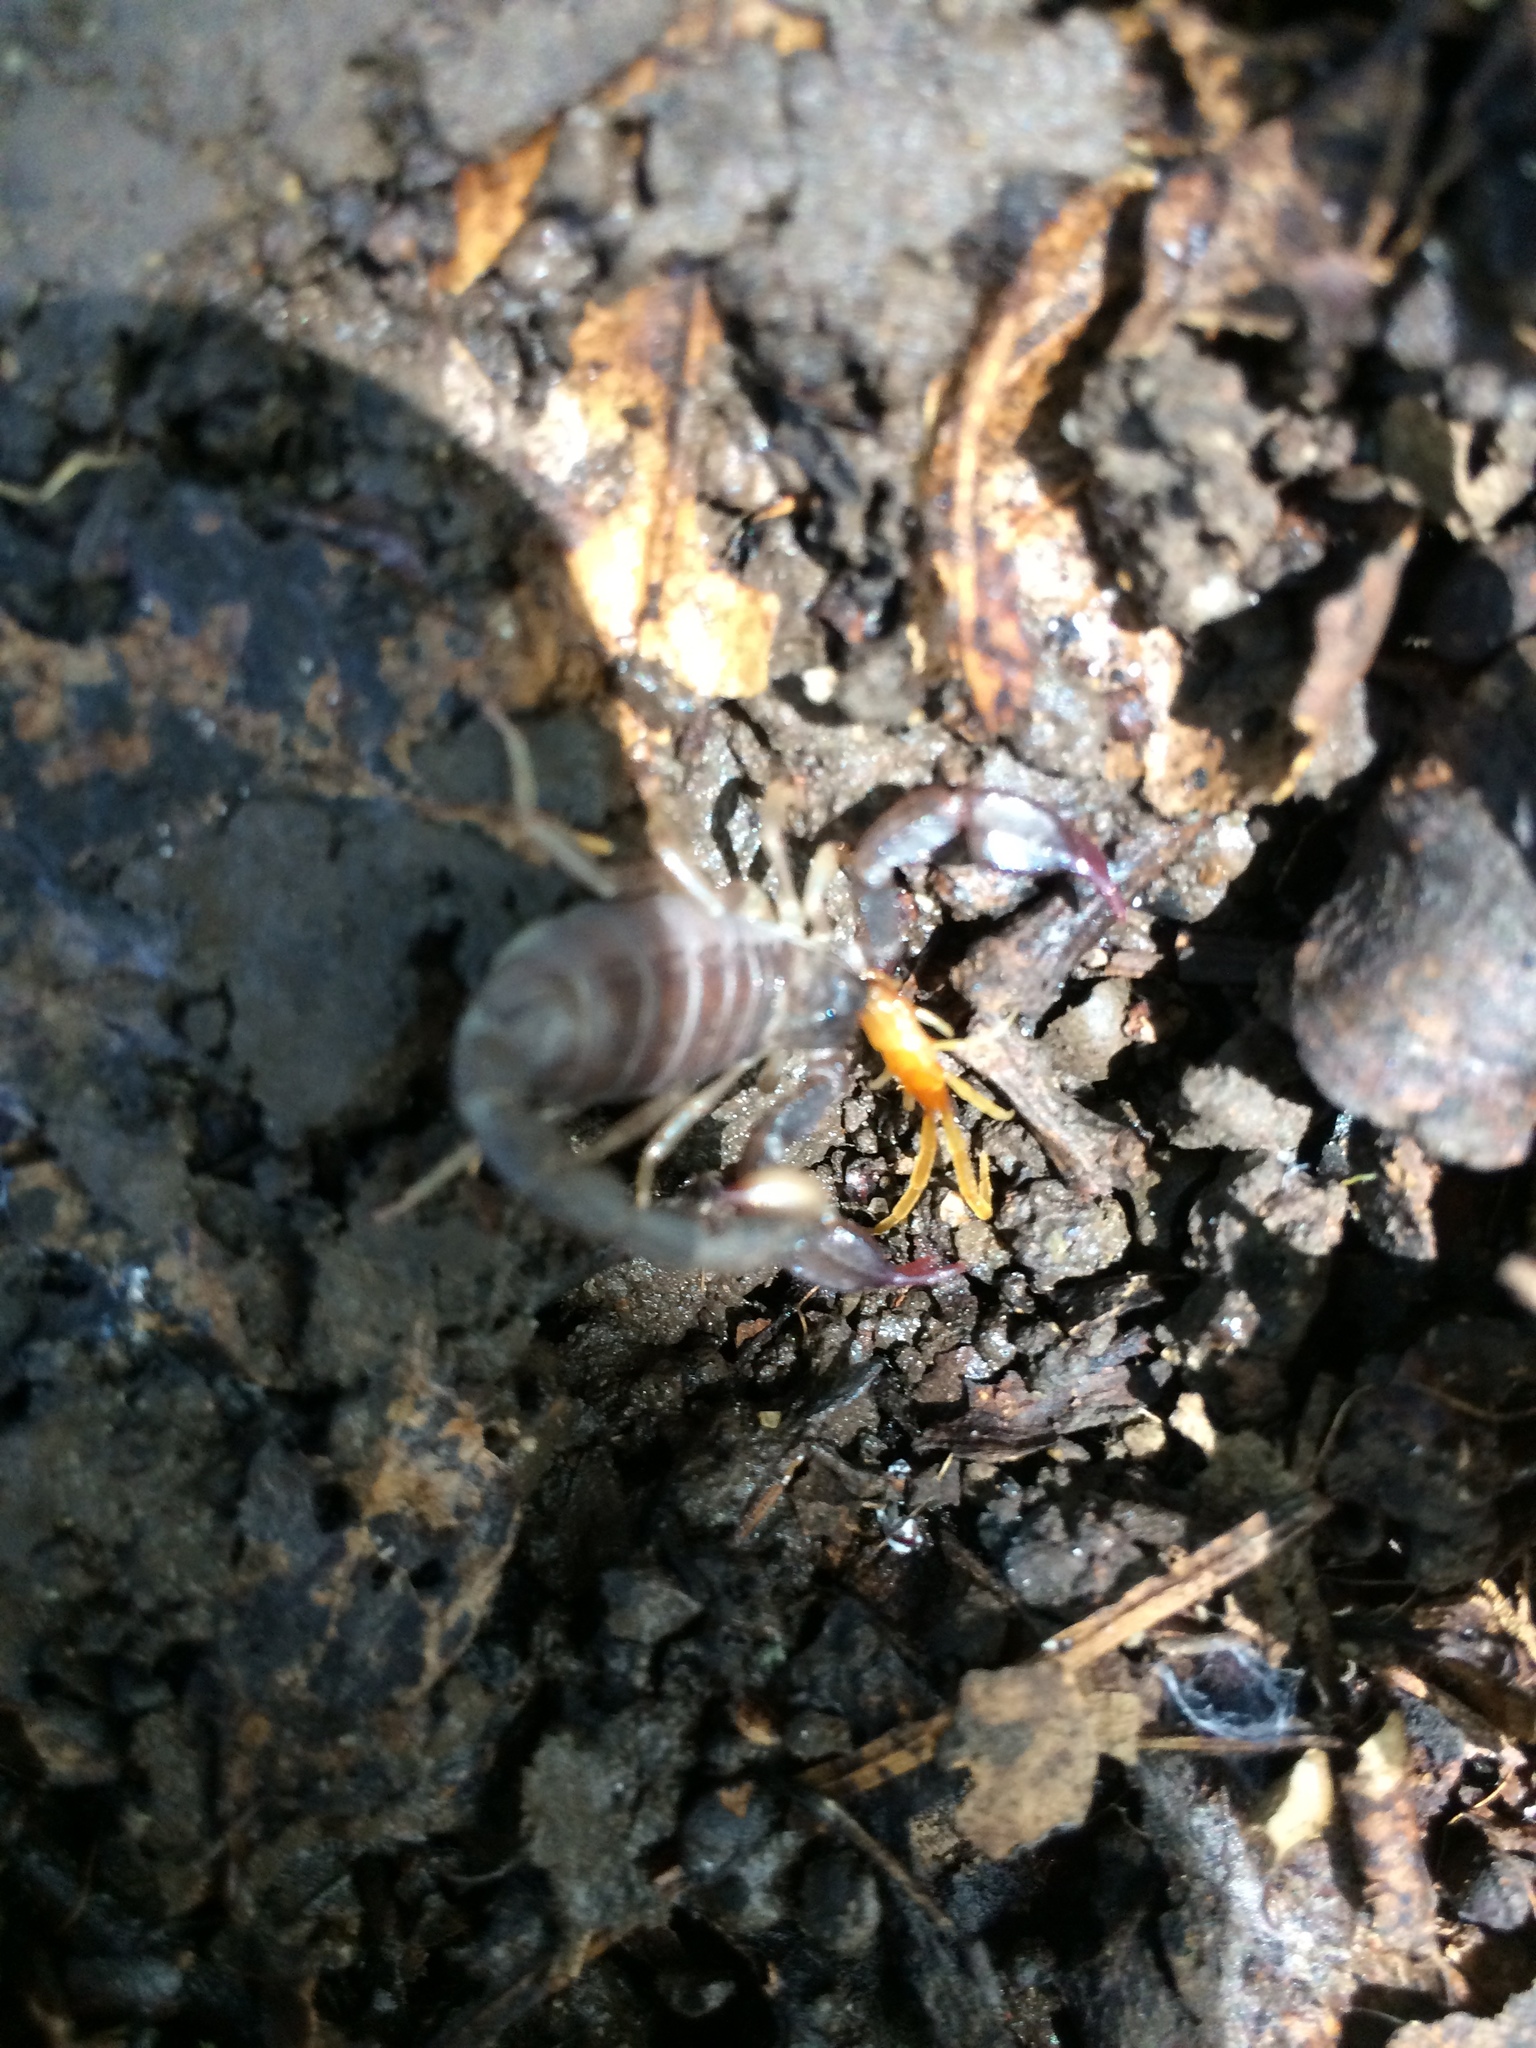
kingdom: Animalia
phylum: Arthropoda
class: Arachnida
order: Scorpiones
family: Chactidae
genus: Uroctonus
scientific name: Uroctonus mordax
